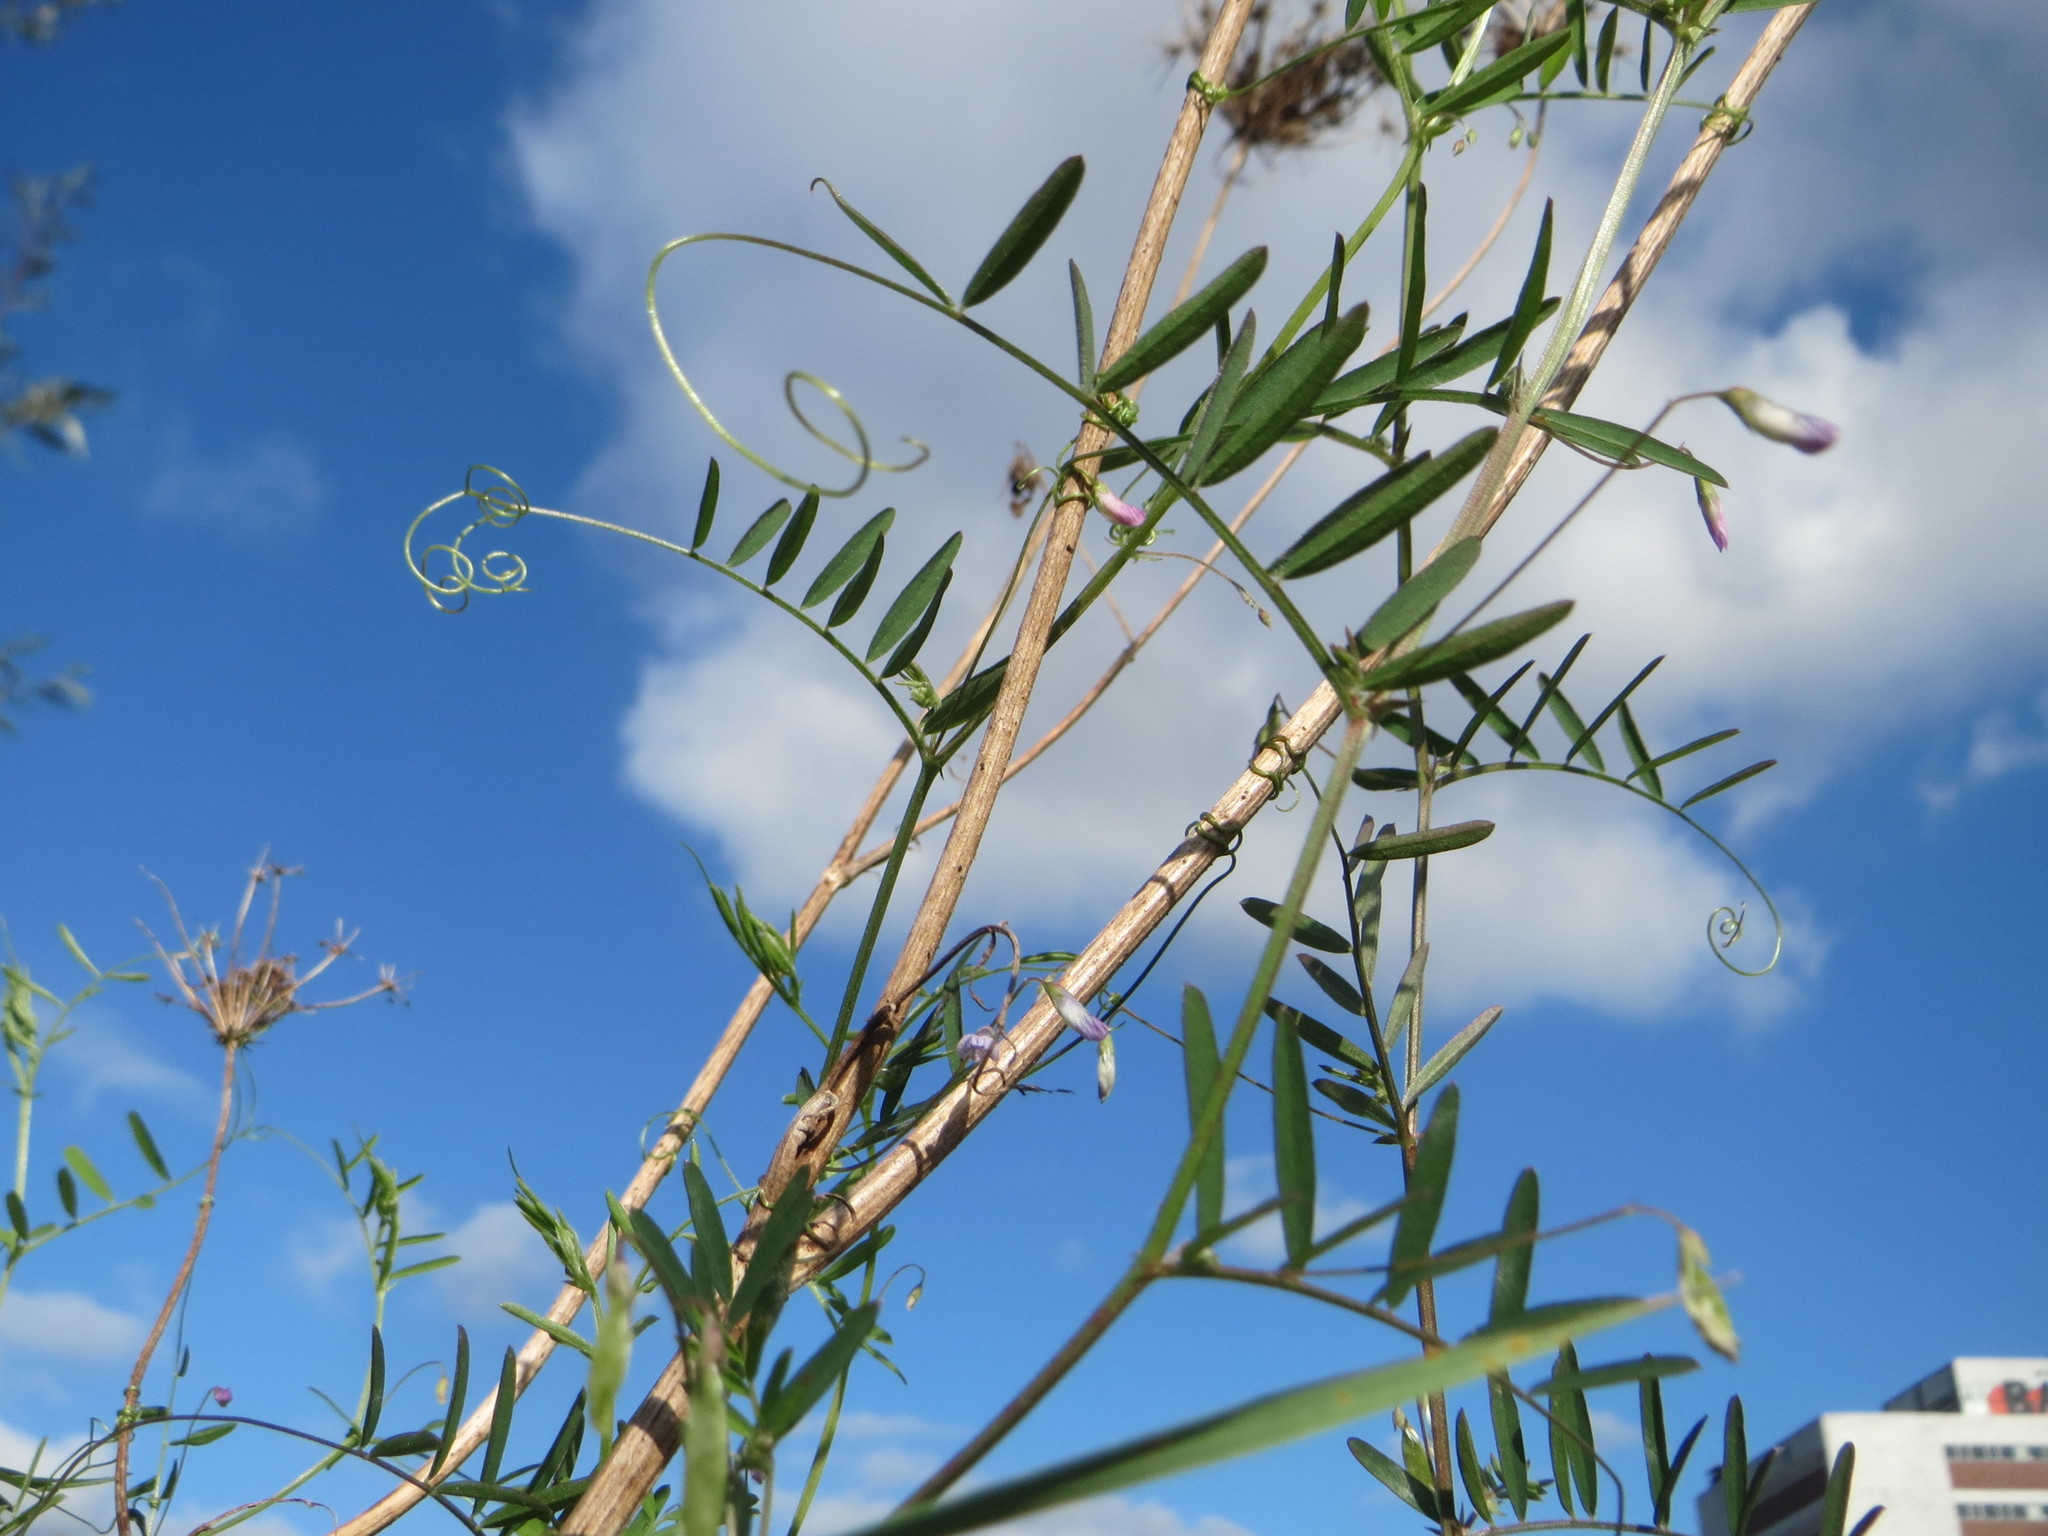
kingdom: Plantae
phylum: Tracheophyta
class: Magnoliopsida
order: Fabales
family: Fabaceae
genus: Vicia
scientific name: Vicia tetrasperma
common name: Smooth tare
